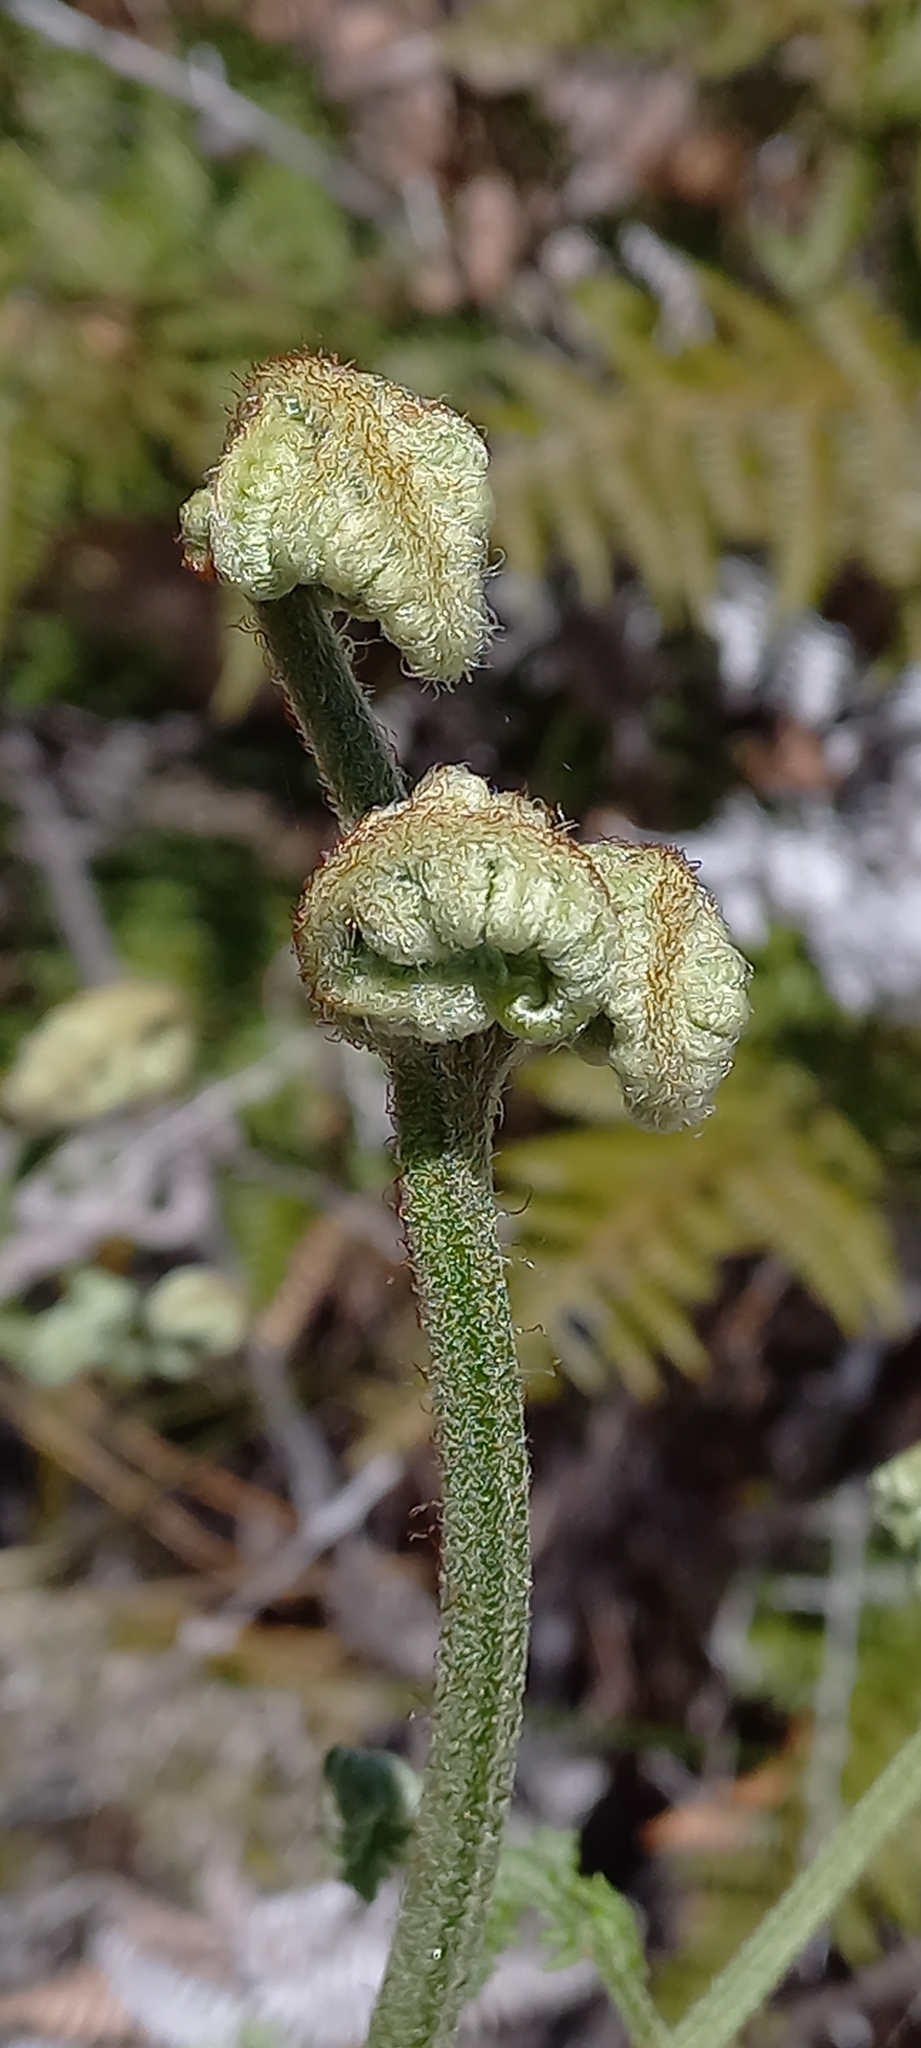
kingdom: Plantae
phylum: Tracheophyta
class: Polypodiopsida
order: Polypodiales
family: Dennstaedtiaceae
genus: Pteridium
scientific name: Pteridium aquilinum
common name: Bracken
